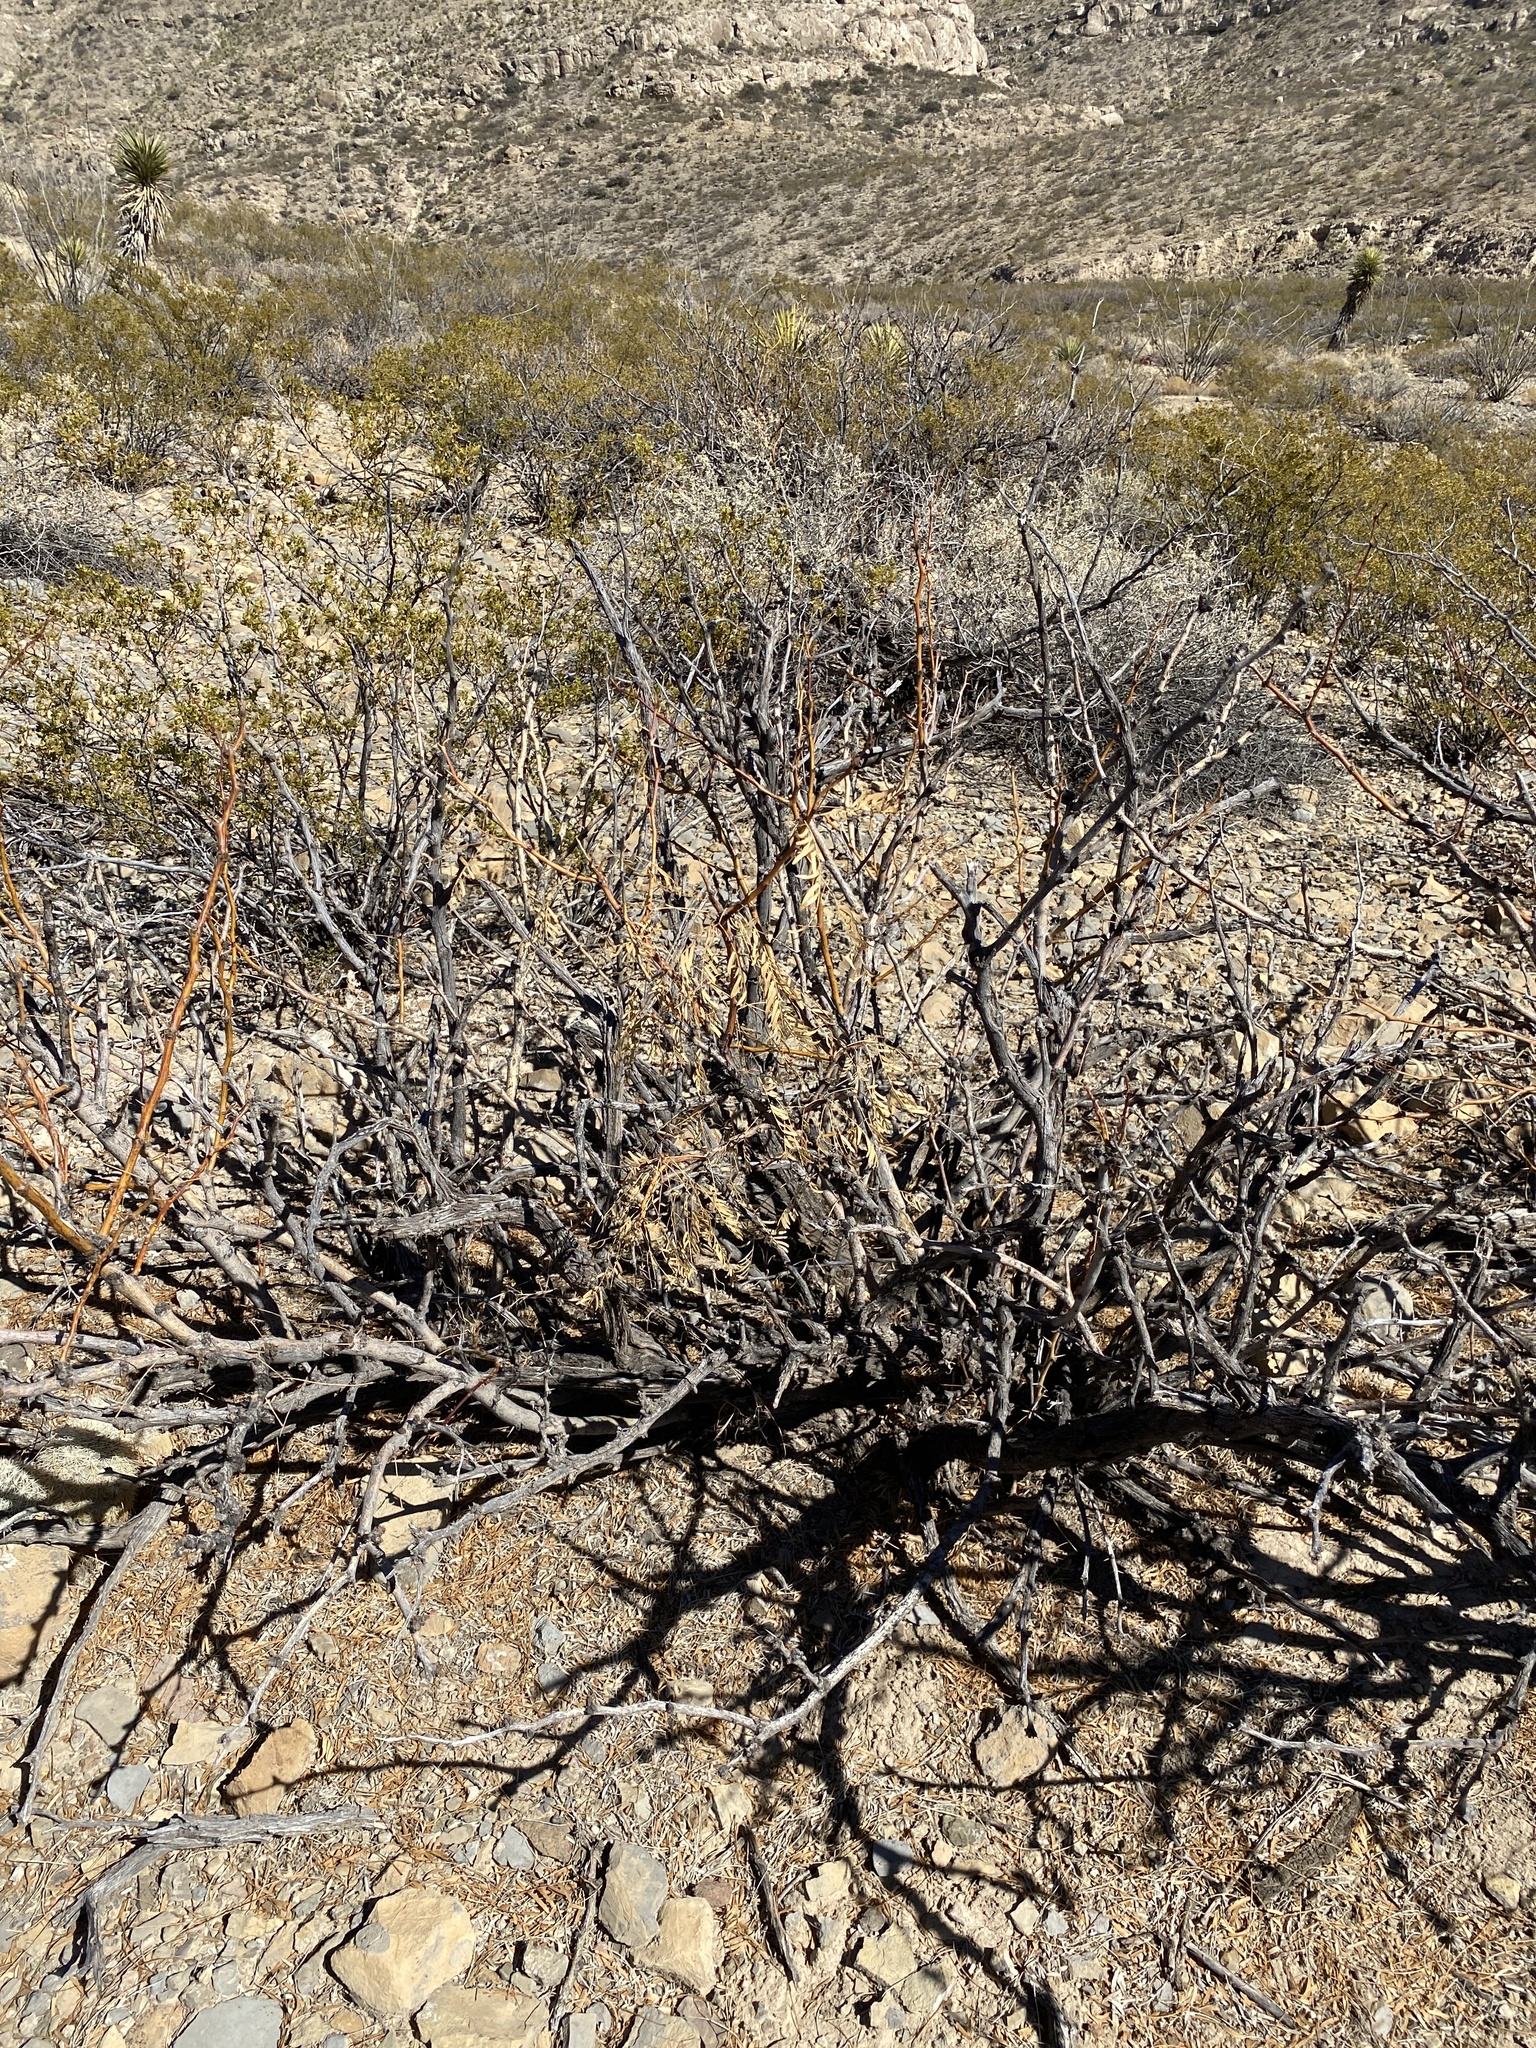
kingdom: Plantae
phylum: Tracheophyta
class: Magnoliopsida
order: Fabales
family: Fabaceae
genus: Prosopis
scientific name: Prosopis glandulosa
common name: Honey mesquite
